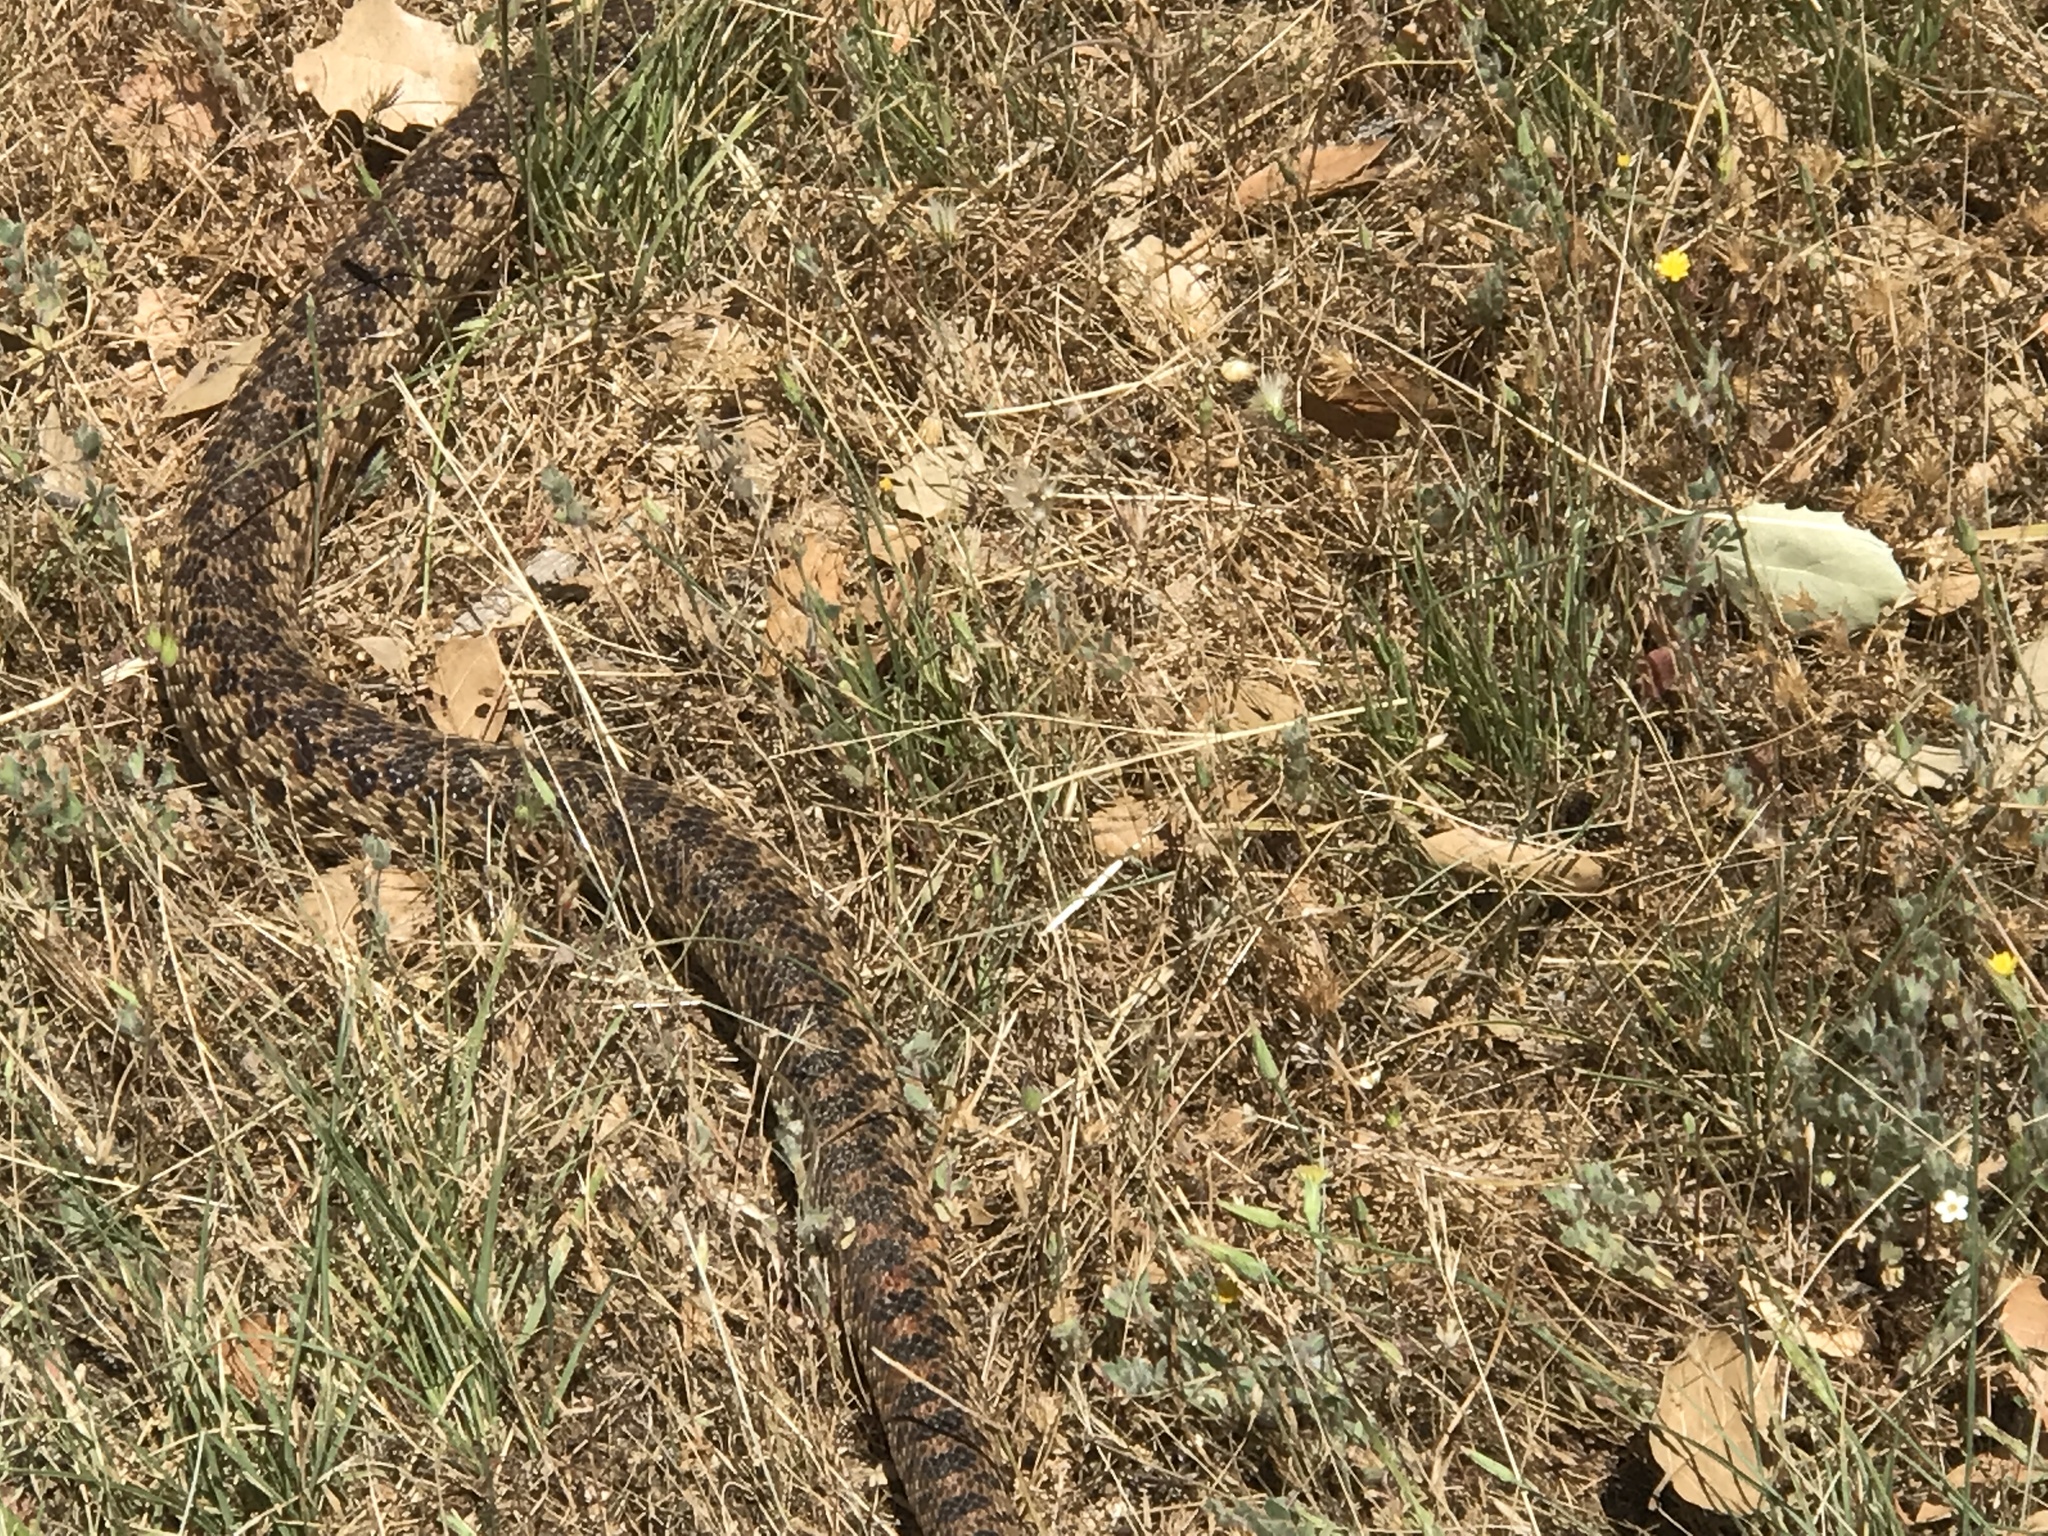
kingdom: Animalia
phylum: Chordata
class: Squamata
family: Colubridae
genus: Pituophis
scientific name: Pituophis catenifer
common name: Gopher snake
